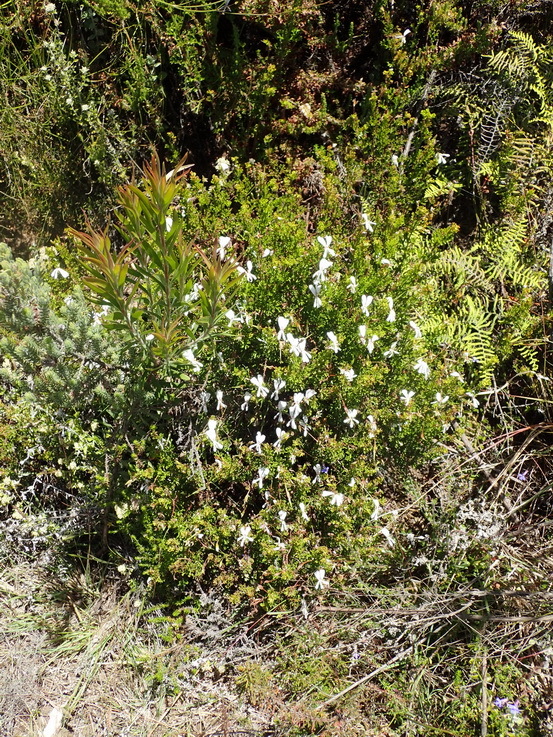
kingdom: Plantae
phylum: Tracheophyta
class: Magnoliopsida
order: Geraniales
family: Geraniaceae
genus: Pelargonium
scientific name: Pelargonium fruticosum
